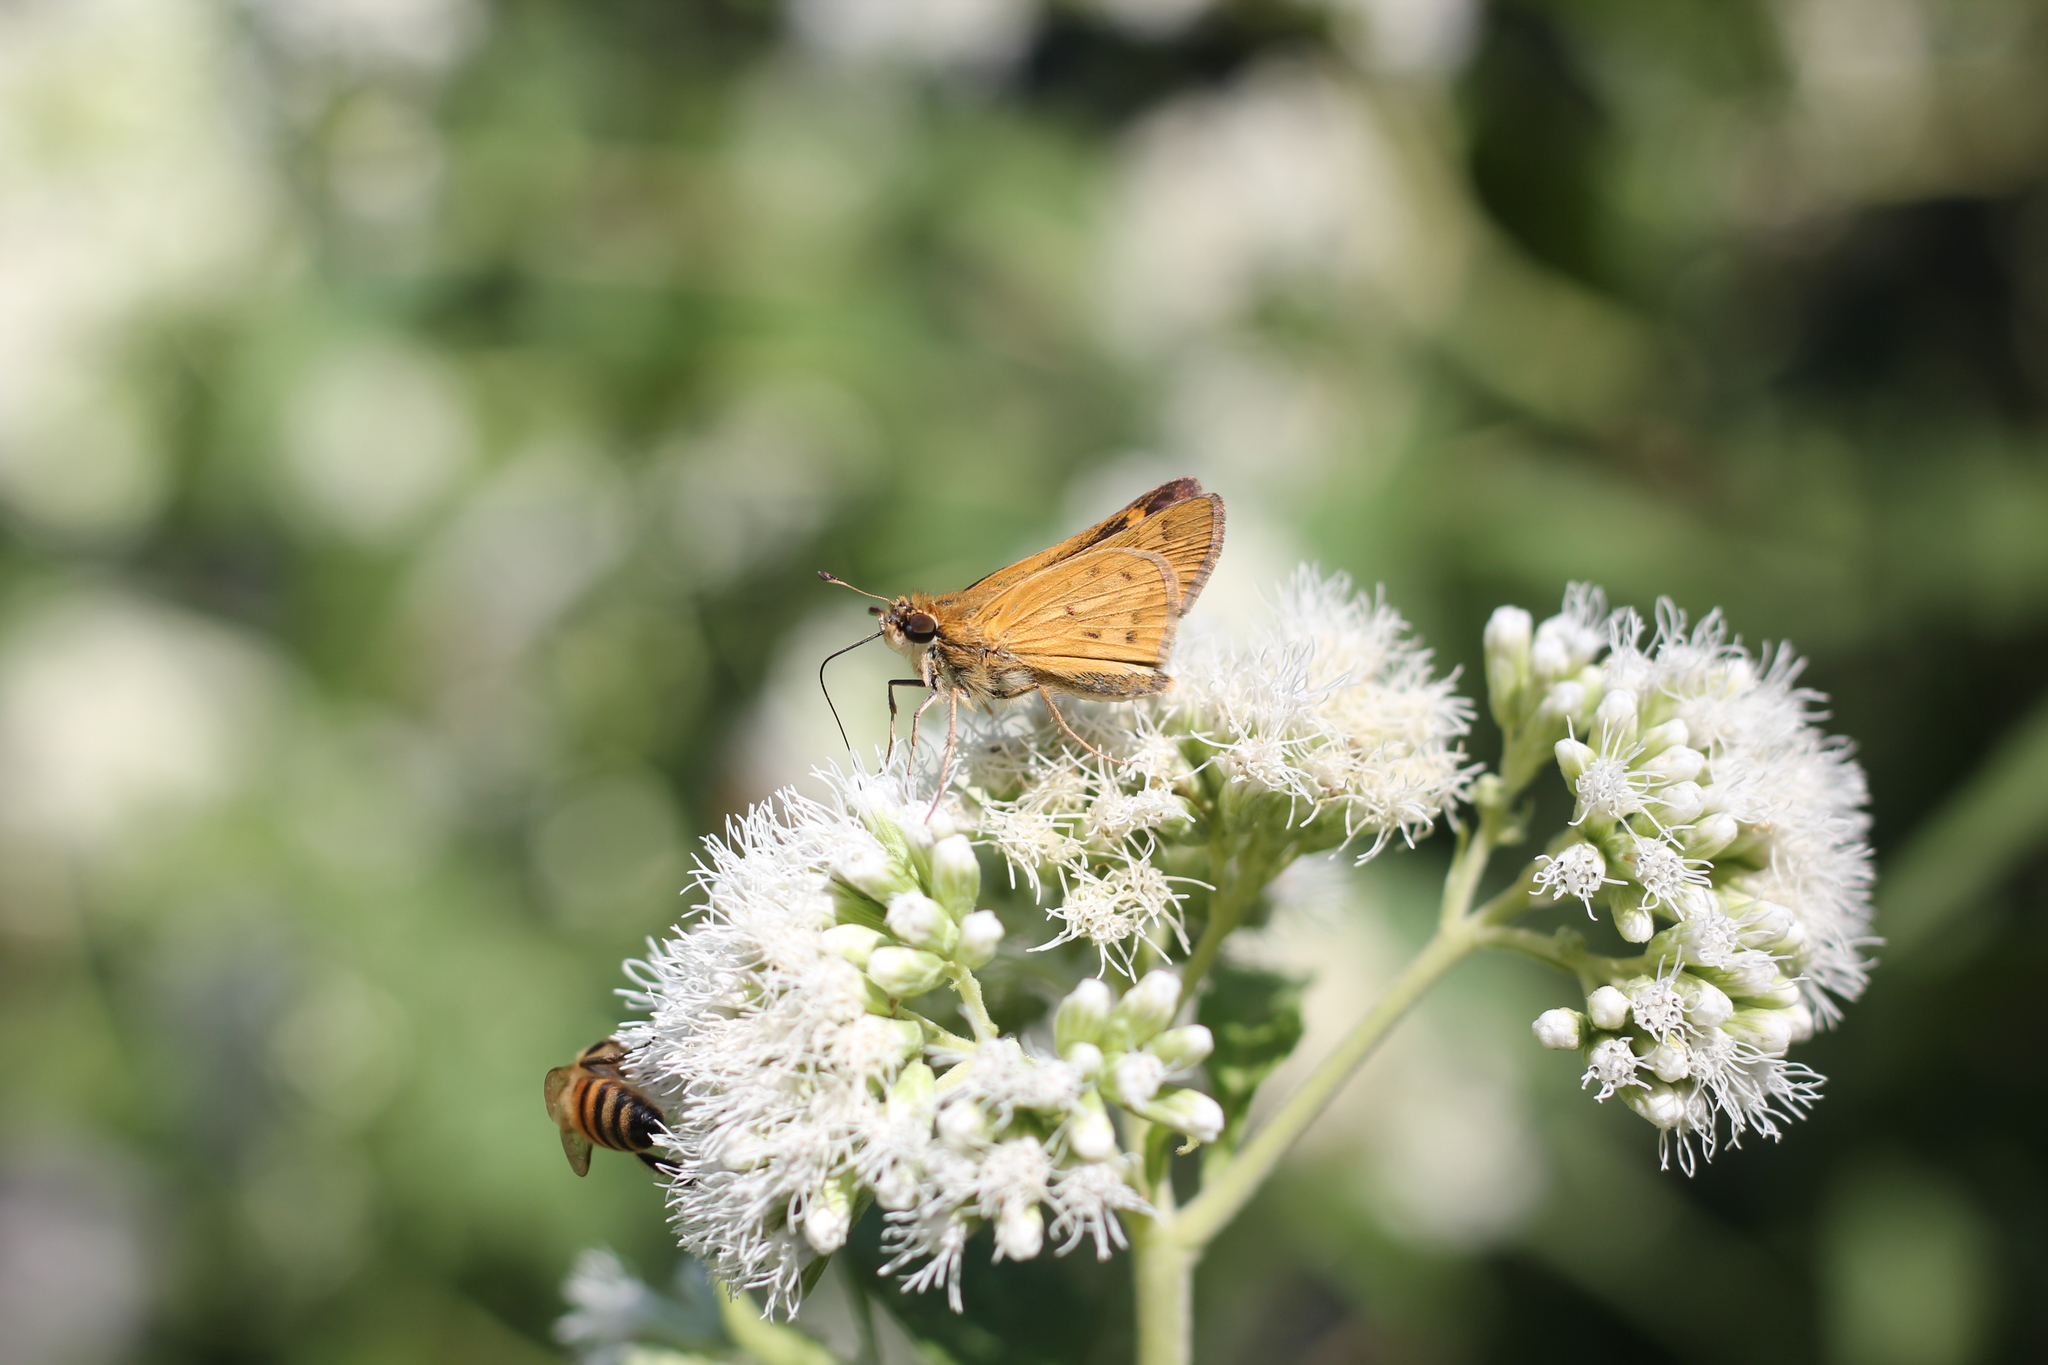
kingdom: Animalia
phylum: Arthropoda
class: Insecta
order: Lepidoptera
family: Hesperiidae
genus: Hylephila
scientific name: Hylephila phyleus
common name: Fiery skipper
